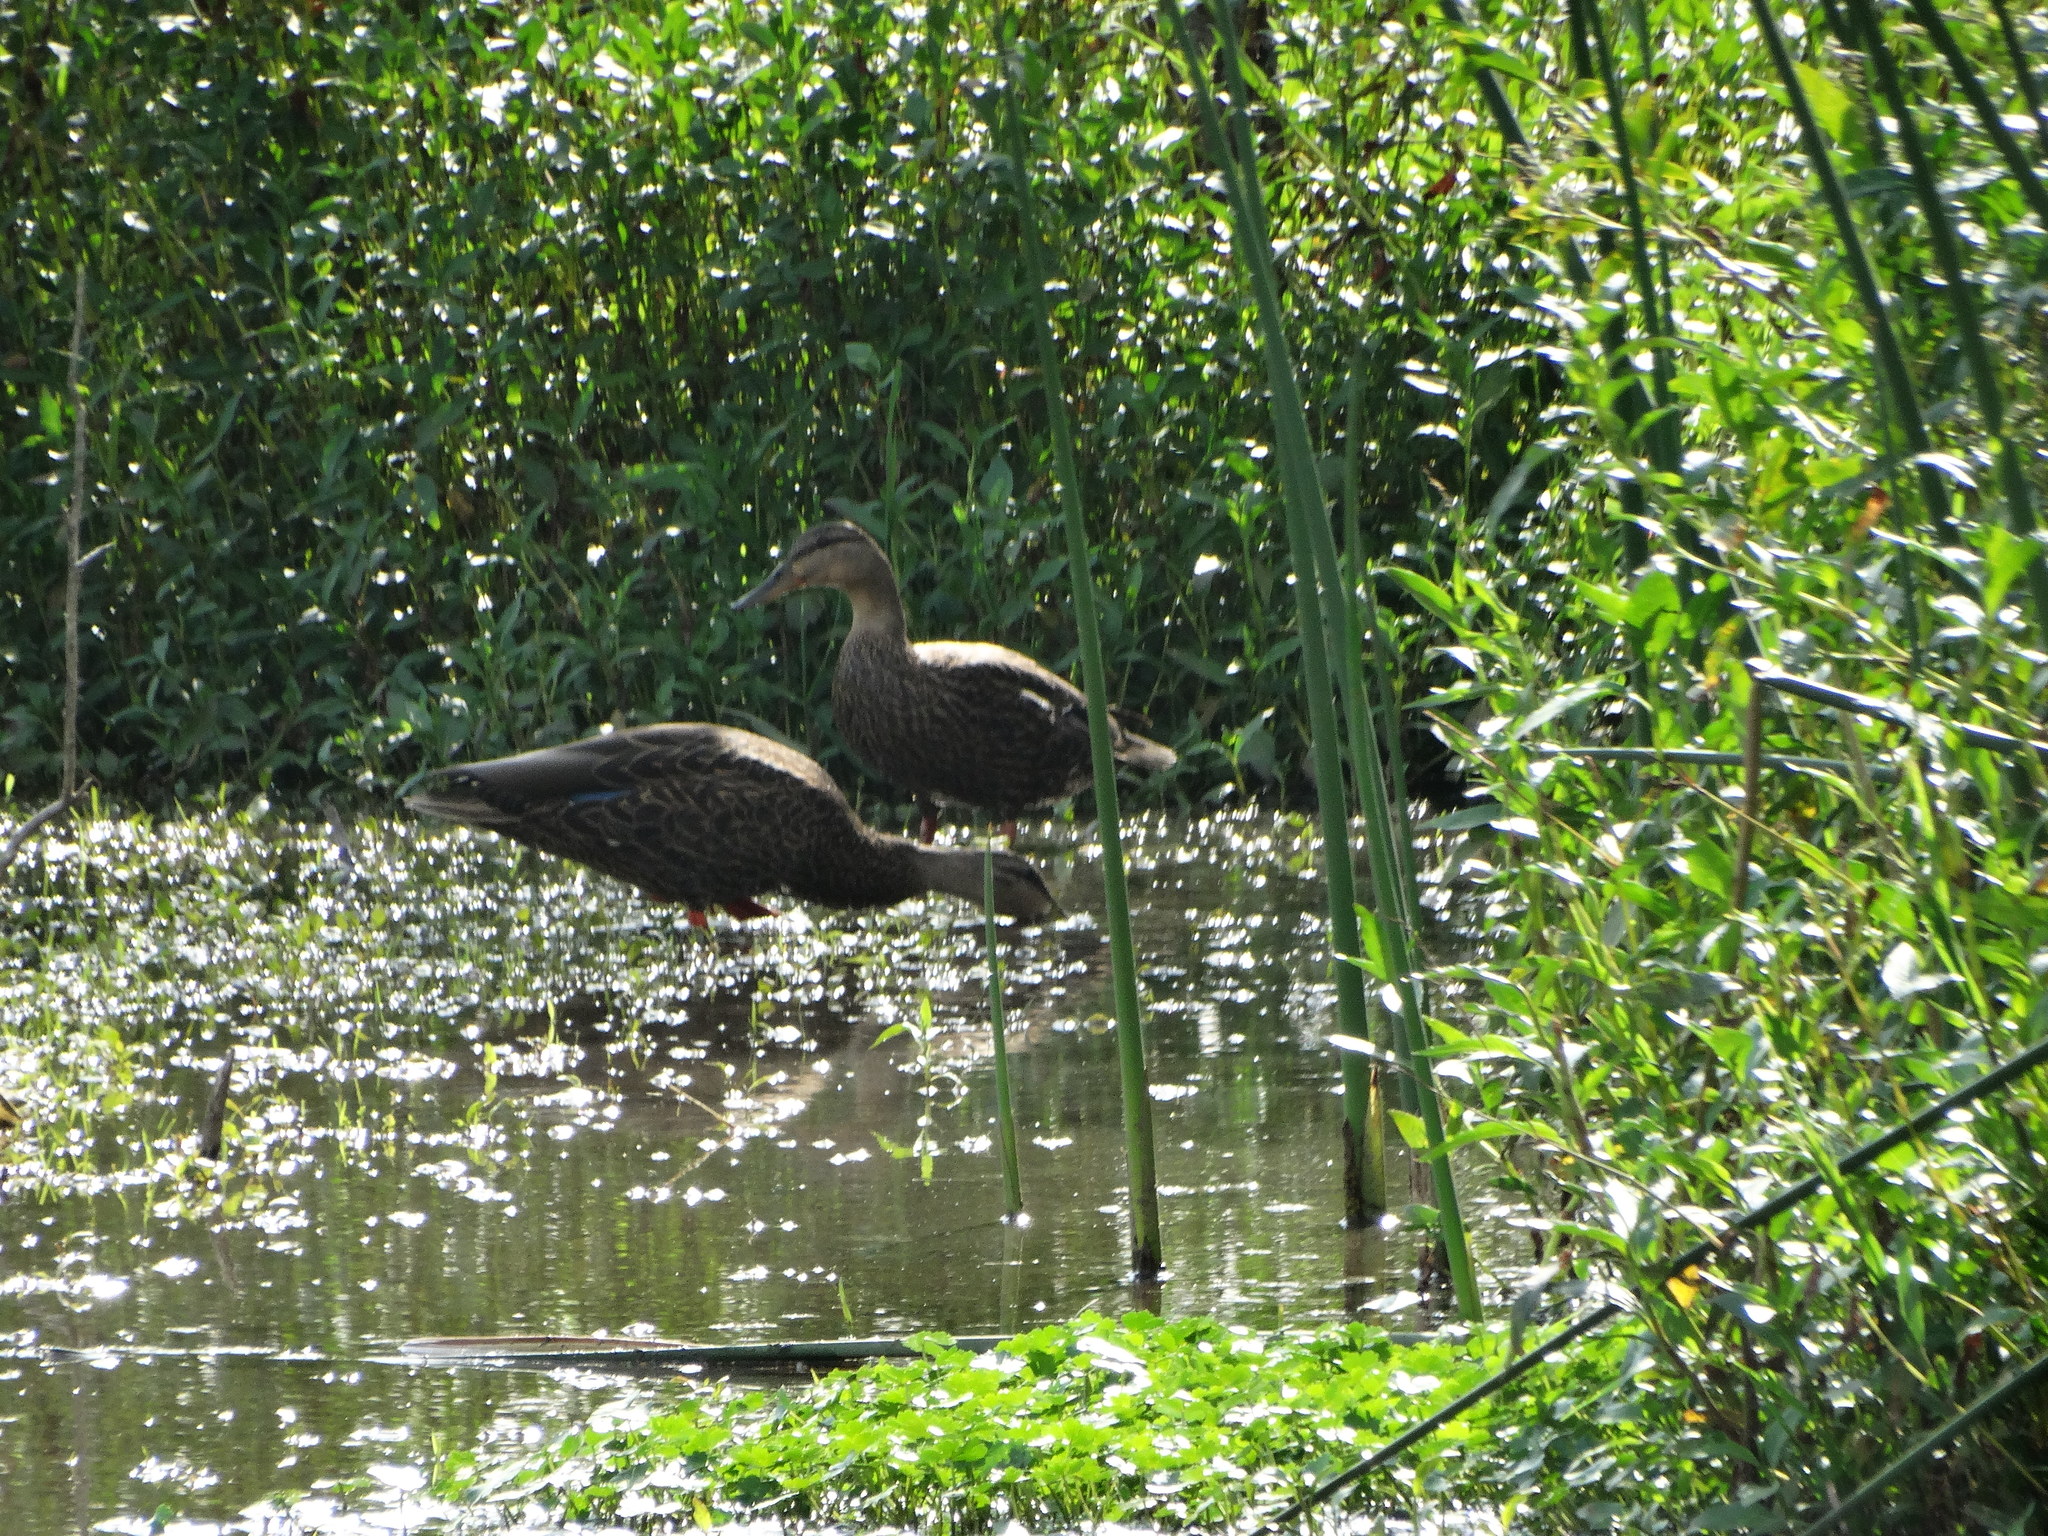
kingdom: Animalia
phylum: Chordata
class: Aves
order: Anseriformes
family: Anatidae
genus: Anas
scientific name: Anas diazi
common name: Mexican duck
